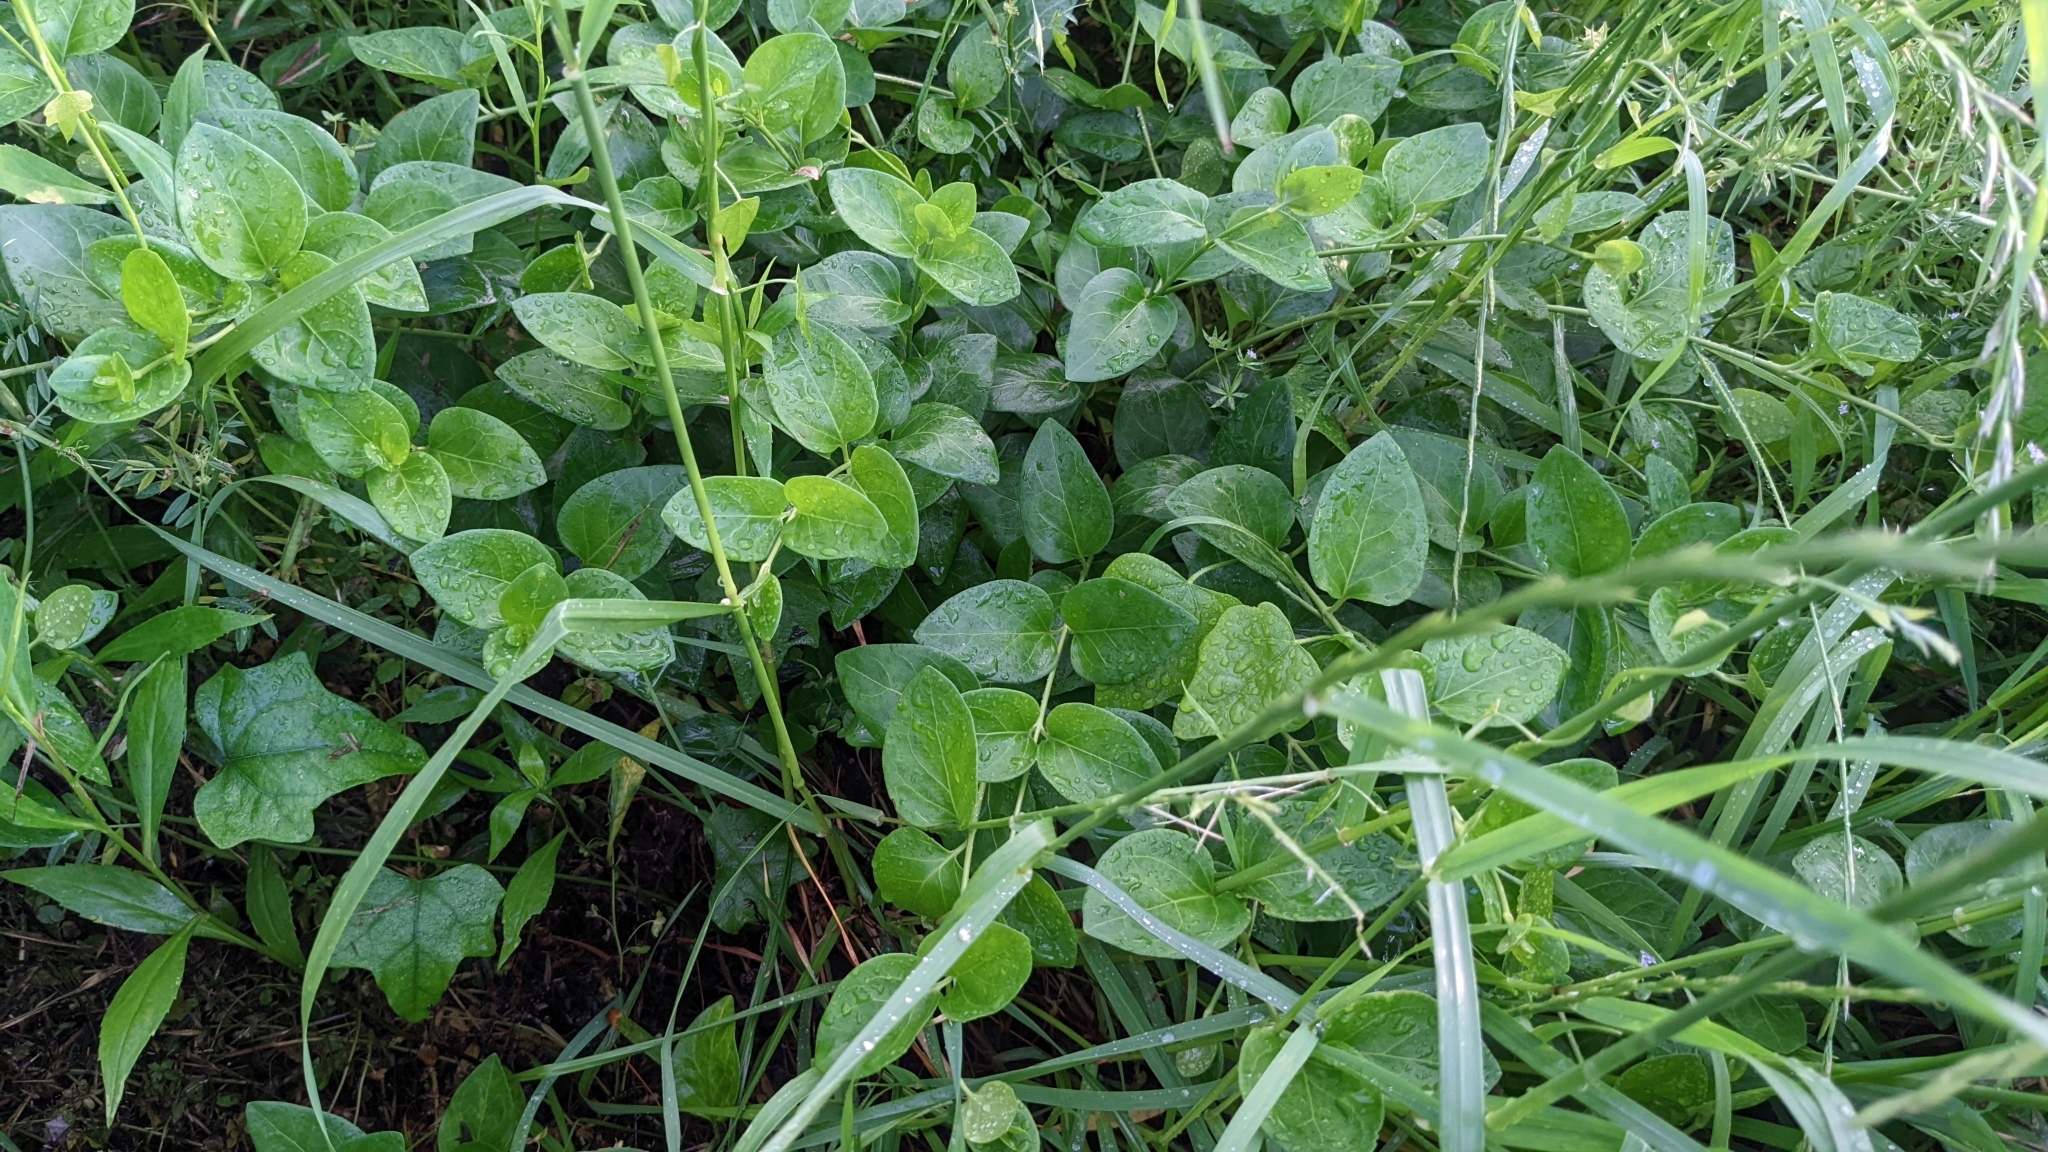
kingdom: Plantae
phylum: Tracheophyta
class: Magnoliopsida
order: Gentianales
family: Apocynaceae
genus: Vinca
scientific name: Vinca major
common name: Greater periwinkle
